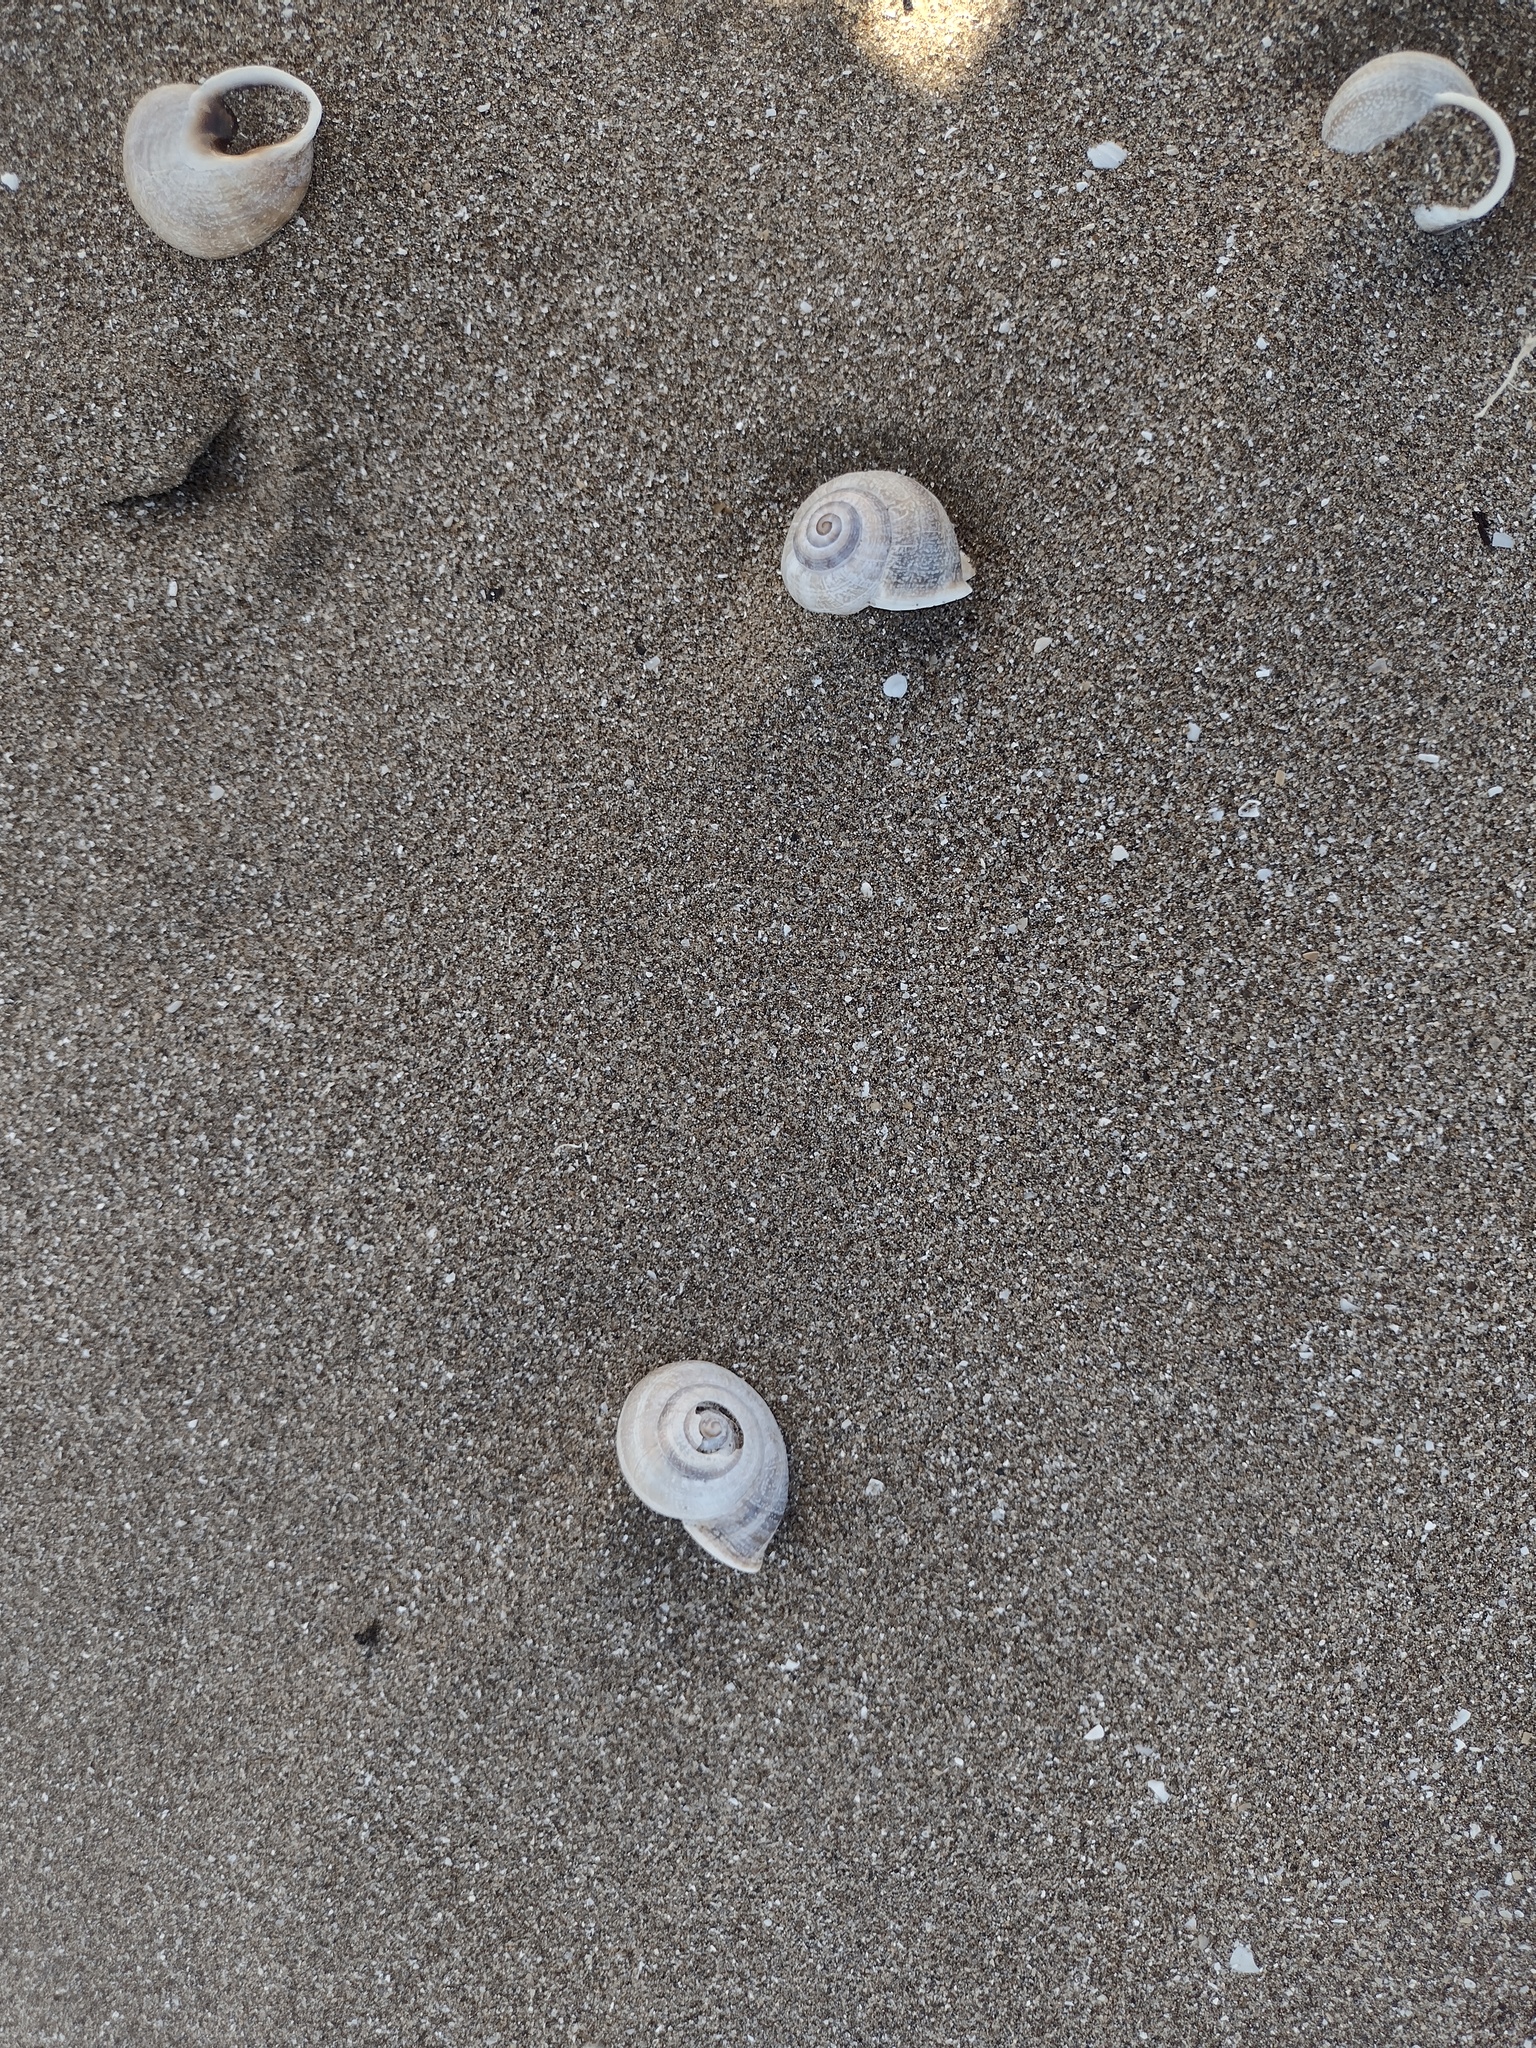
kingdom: Animalia
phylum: Mollusca
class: Gastropoda
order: Stylommatophora
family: Helicidae
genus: Otala
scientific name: Otala punctata
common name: Milk snail
